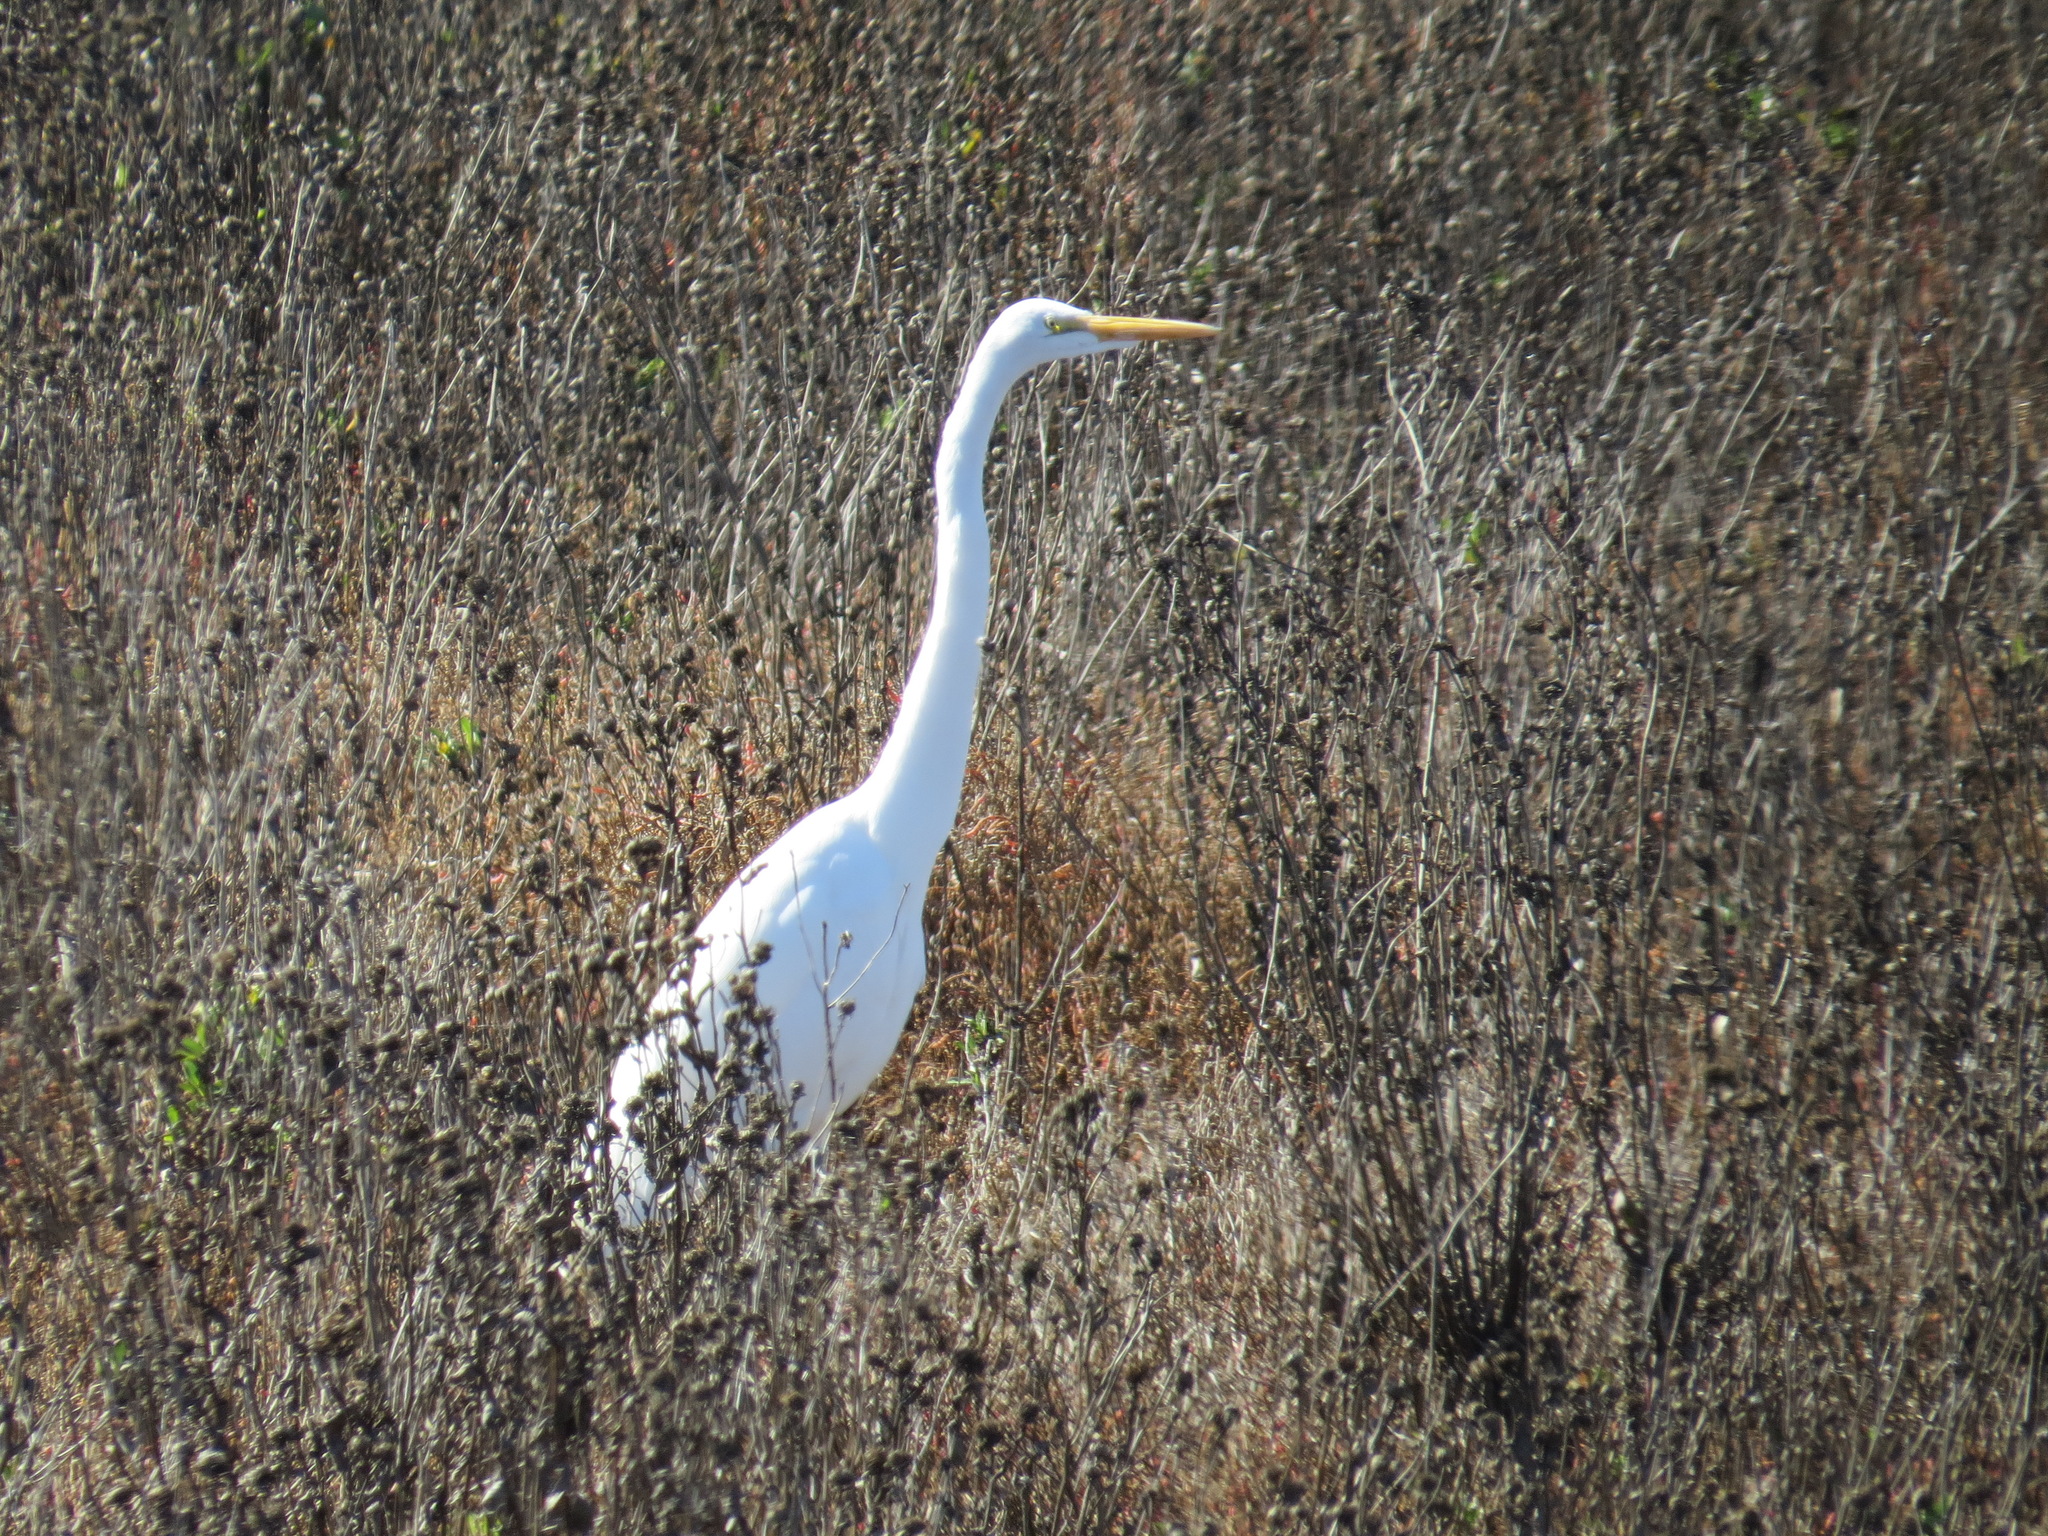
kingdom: Animalia
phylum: Chordata
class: Aves
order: Pelecaniformes
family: Ardeidae
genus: Ardea
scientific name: Ardea alba
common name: Great egret
